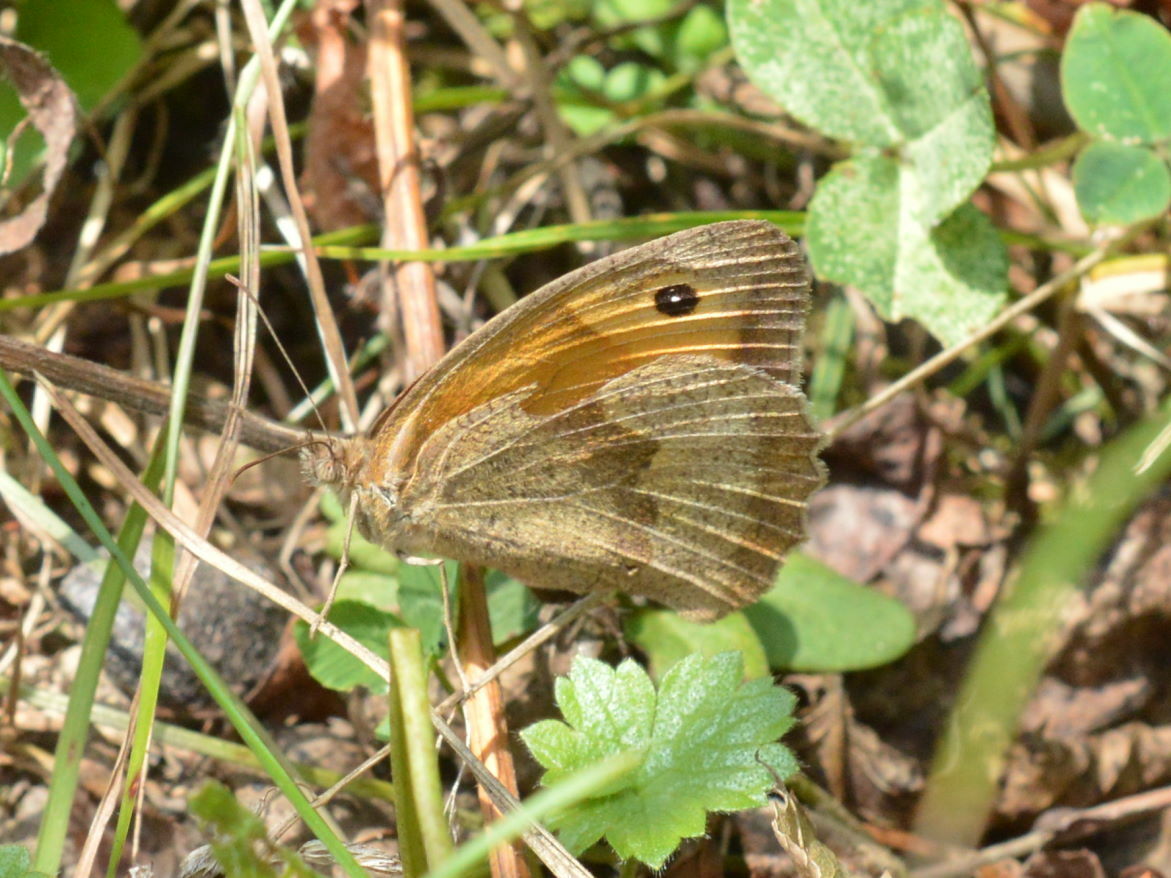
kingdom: Animalia
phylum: Arthropoda
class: Insecta
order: Lepidoptera
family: Nymphalidae
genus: Maniola
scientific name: Maniola jurtina
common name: Meadow brown
